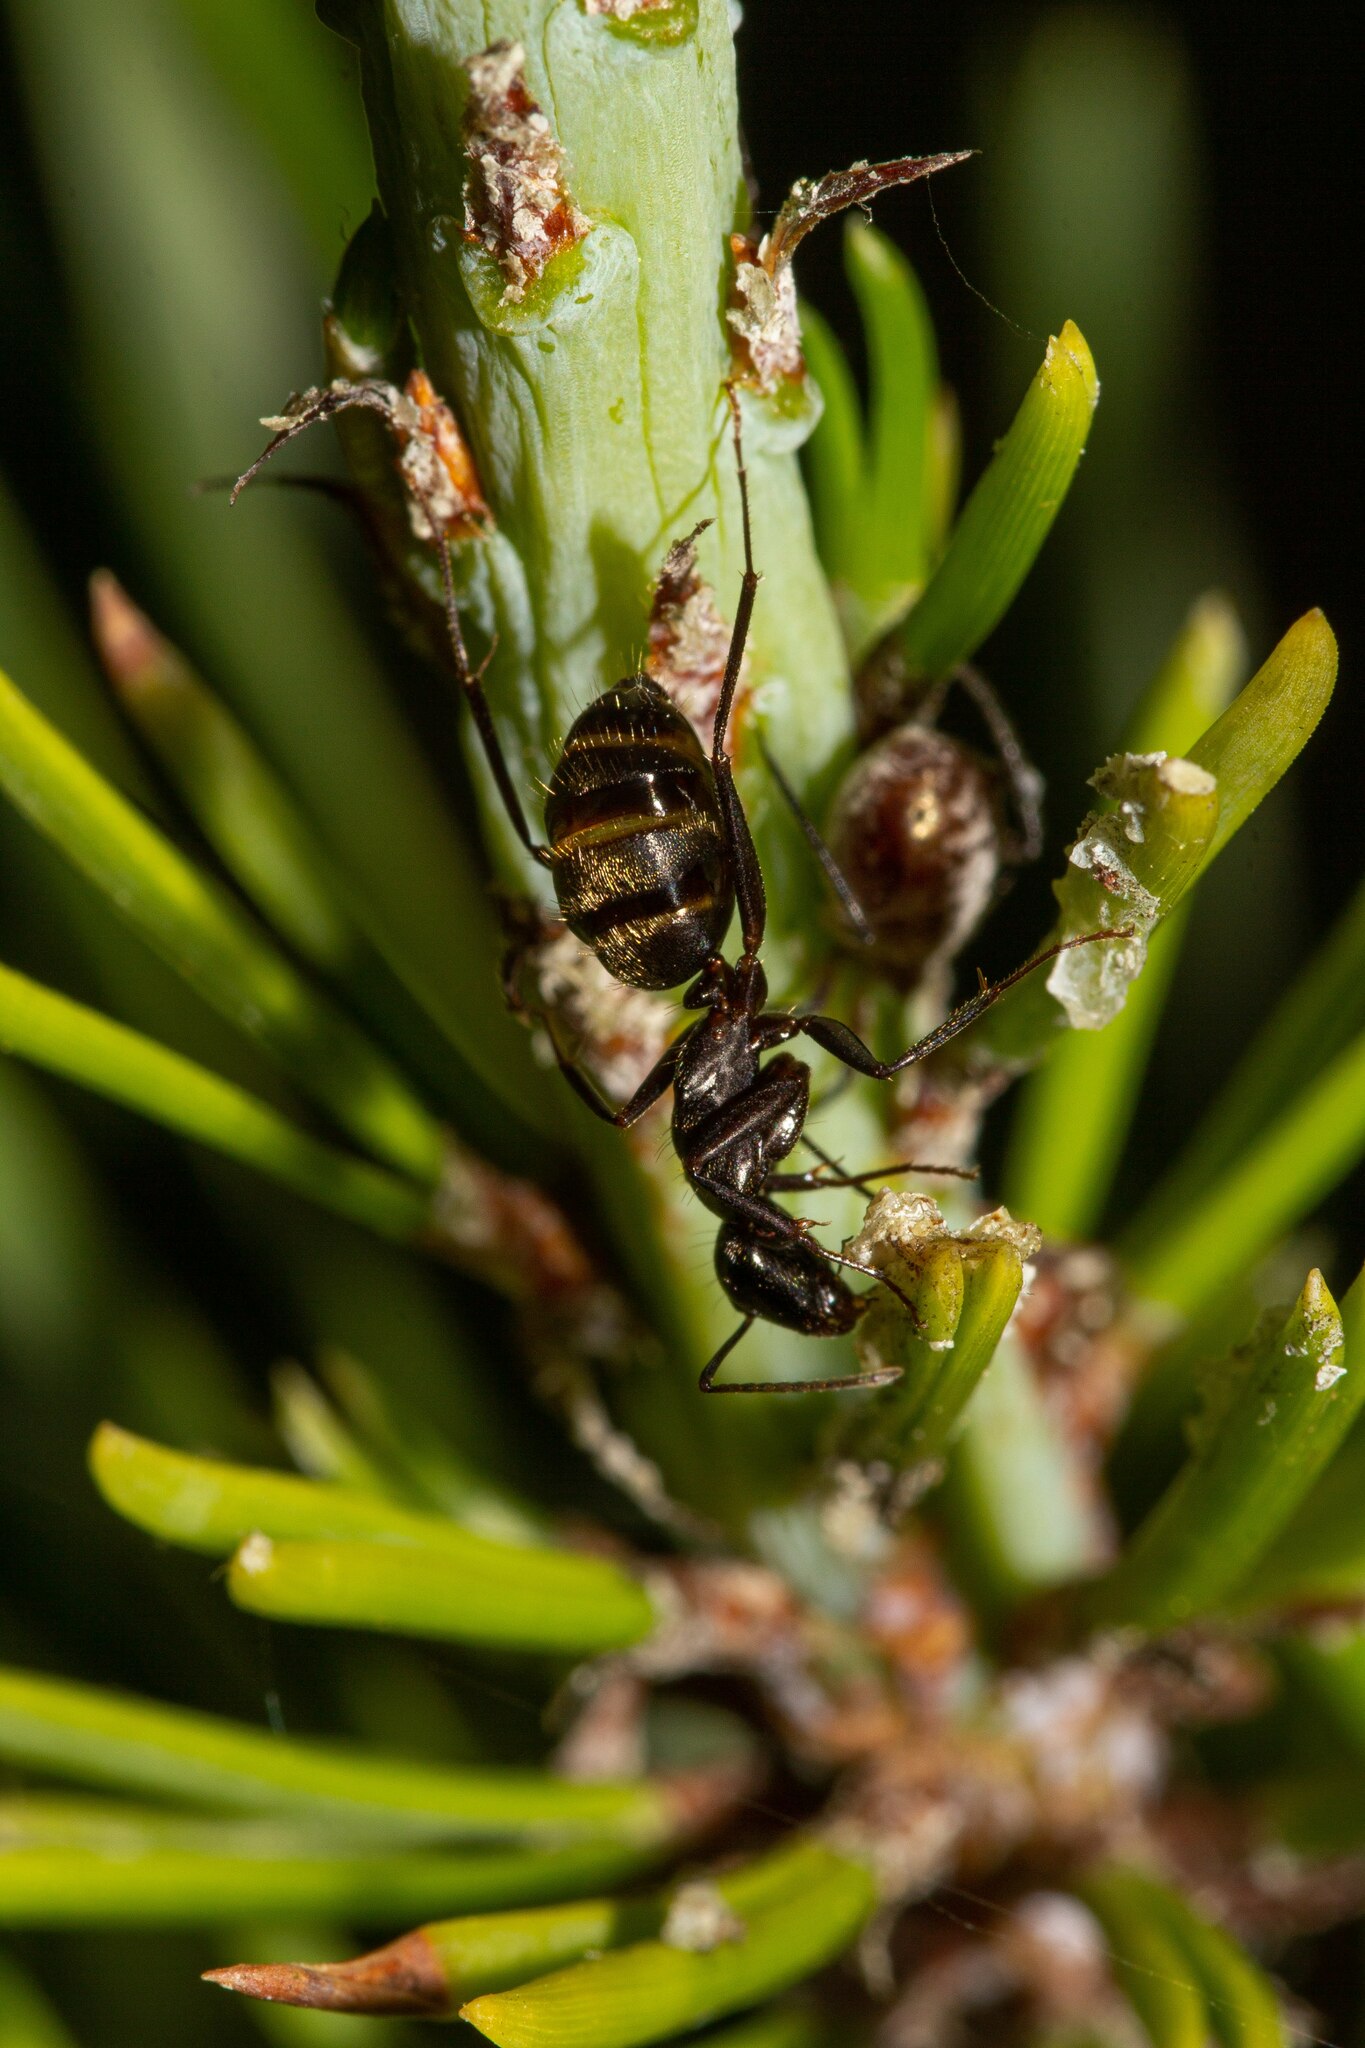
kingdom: Animalia
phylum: Arthropoda
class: Insecta
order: Hymenoptera
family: Formicidae
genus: Camponotus
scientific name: Camponotus pennsylvanicus
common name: Black carpenter ant
